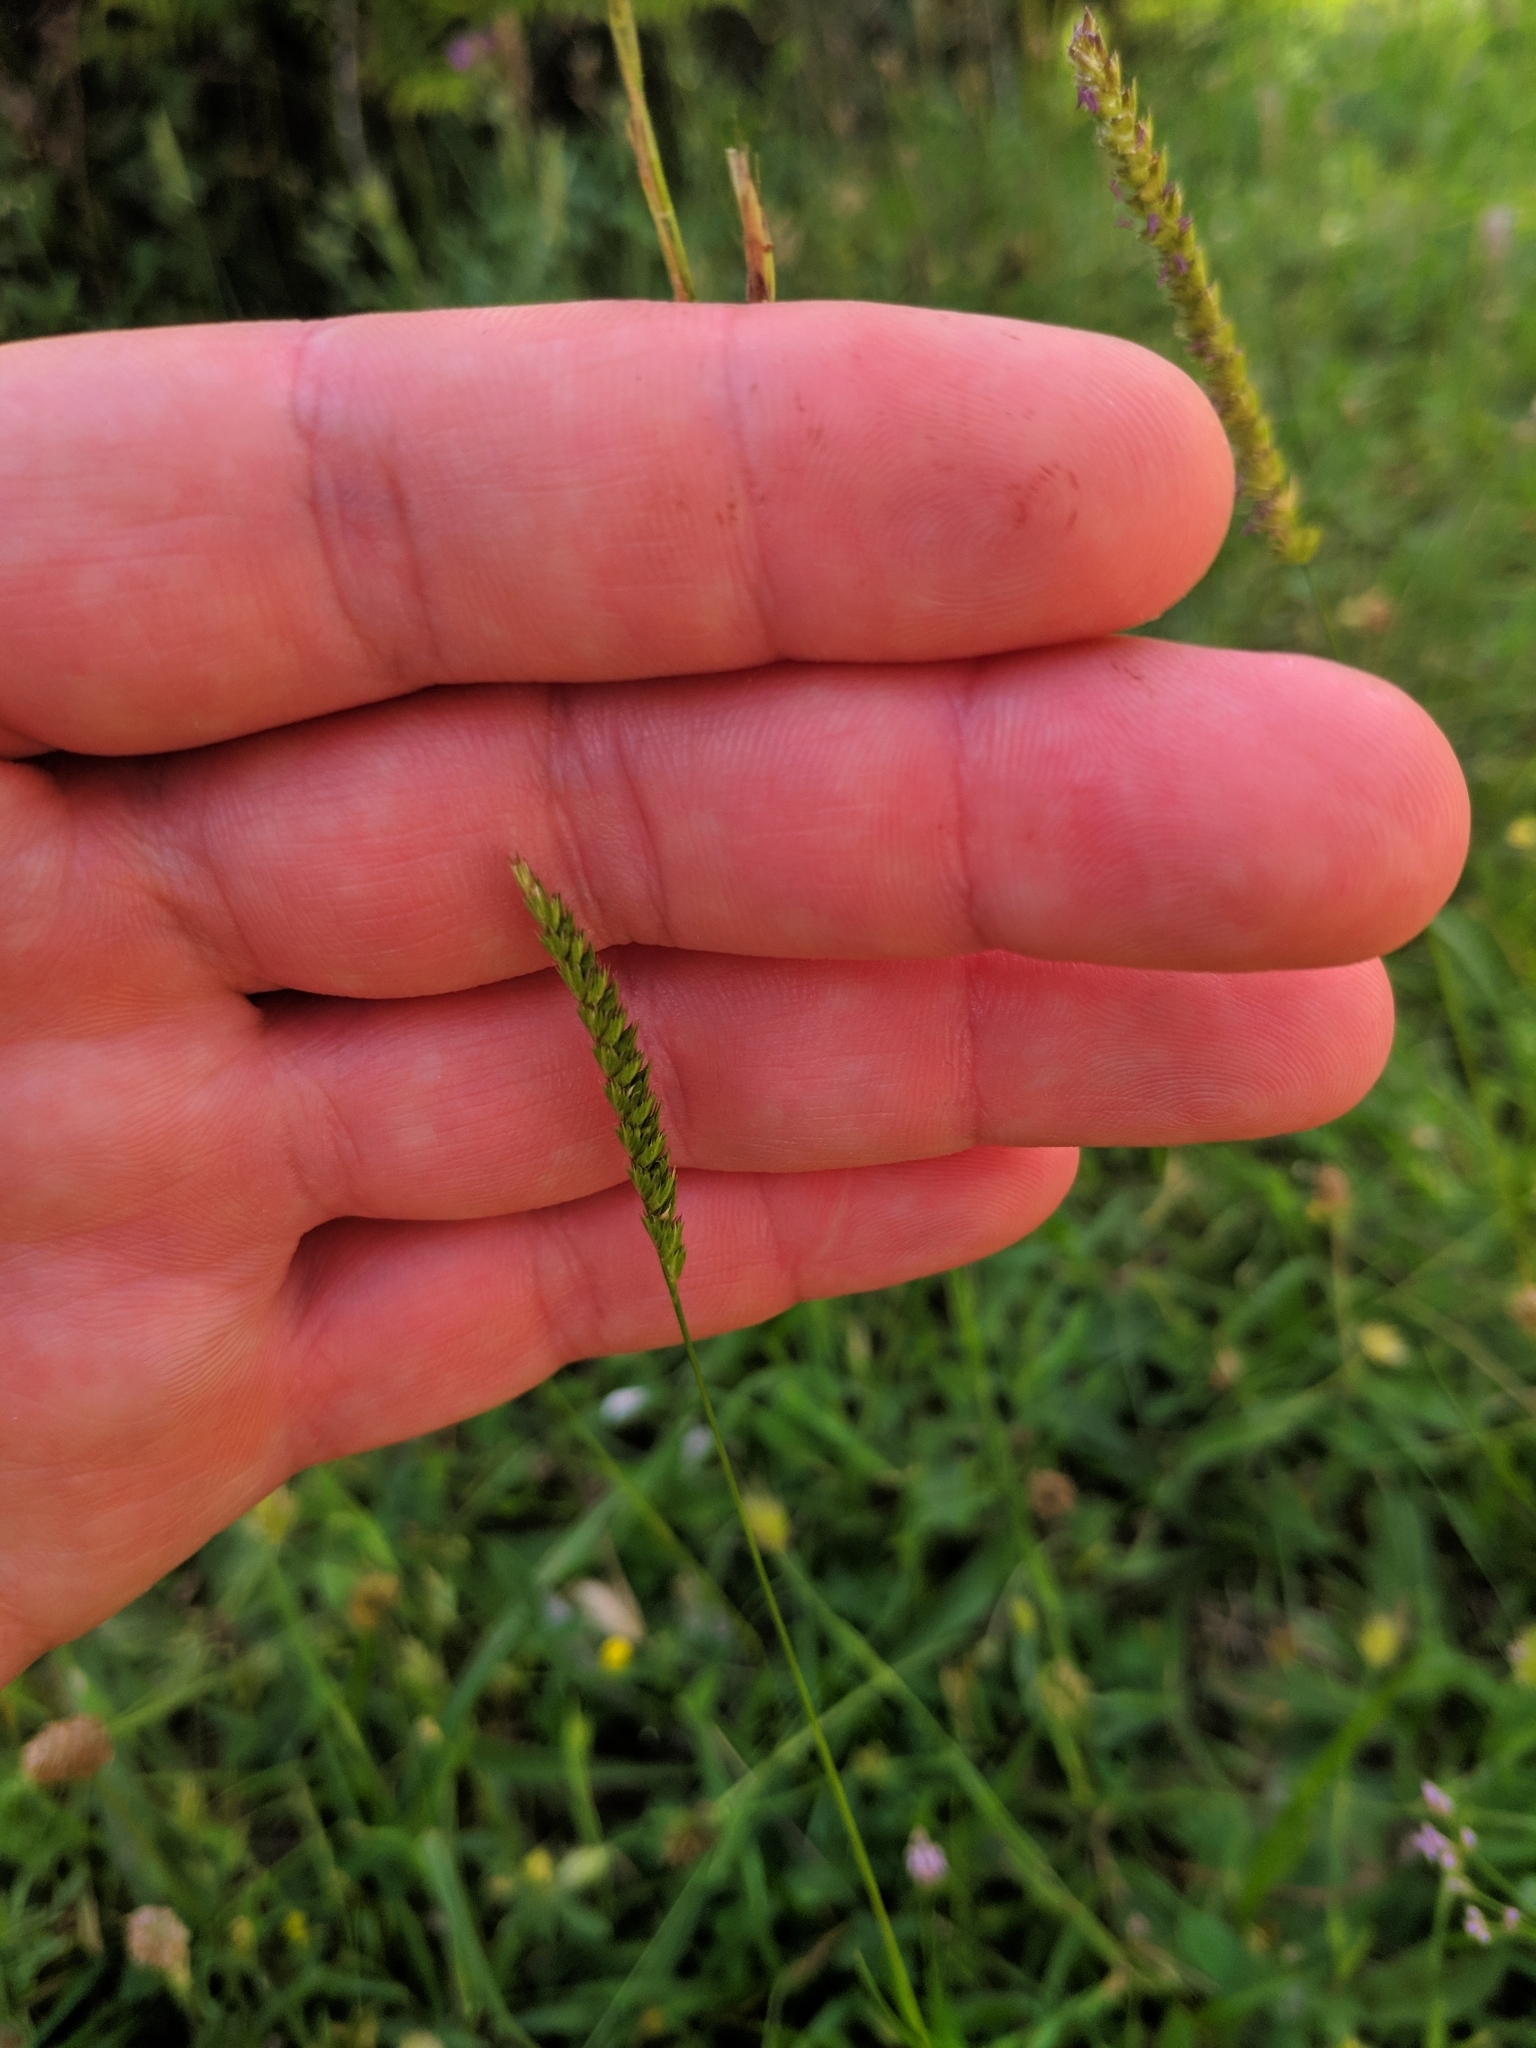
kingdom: Plantae
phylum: Tracheophyta
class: Liliopsida
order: Poales
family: Poaceae
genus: Cynosurus
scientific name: Cynosurus cristatus
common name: Crested dog's-tail
